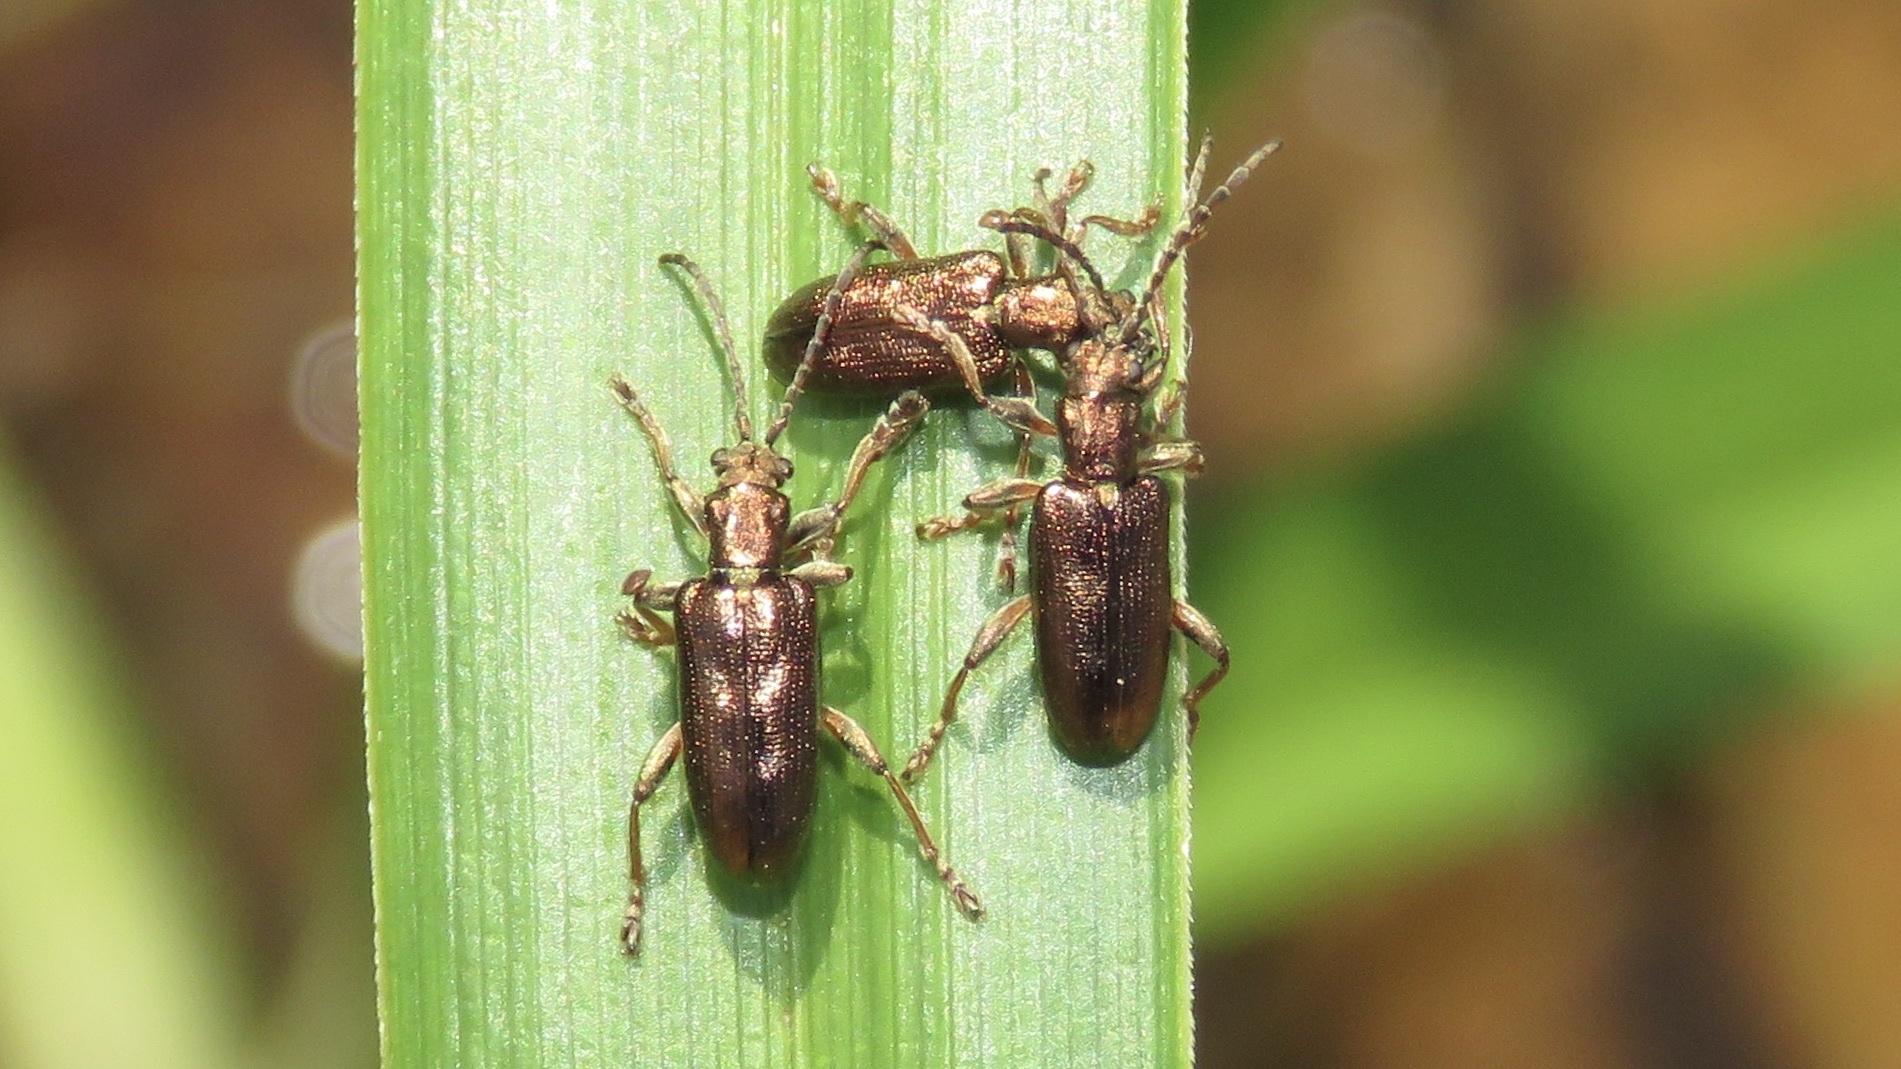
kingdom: Animalia
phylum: Arthropoda
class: Insecta
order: Coleoptera
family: Chrysomelidae
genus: Plateumaris
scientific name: Plateumaris pusilla
